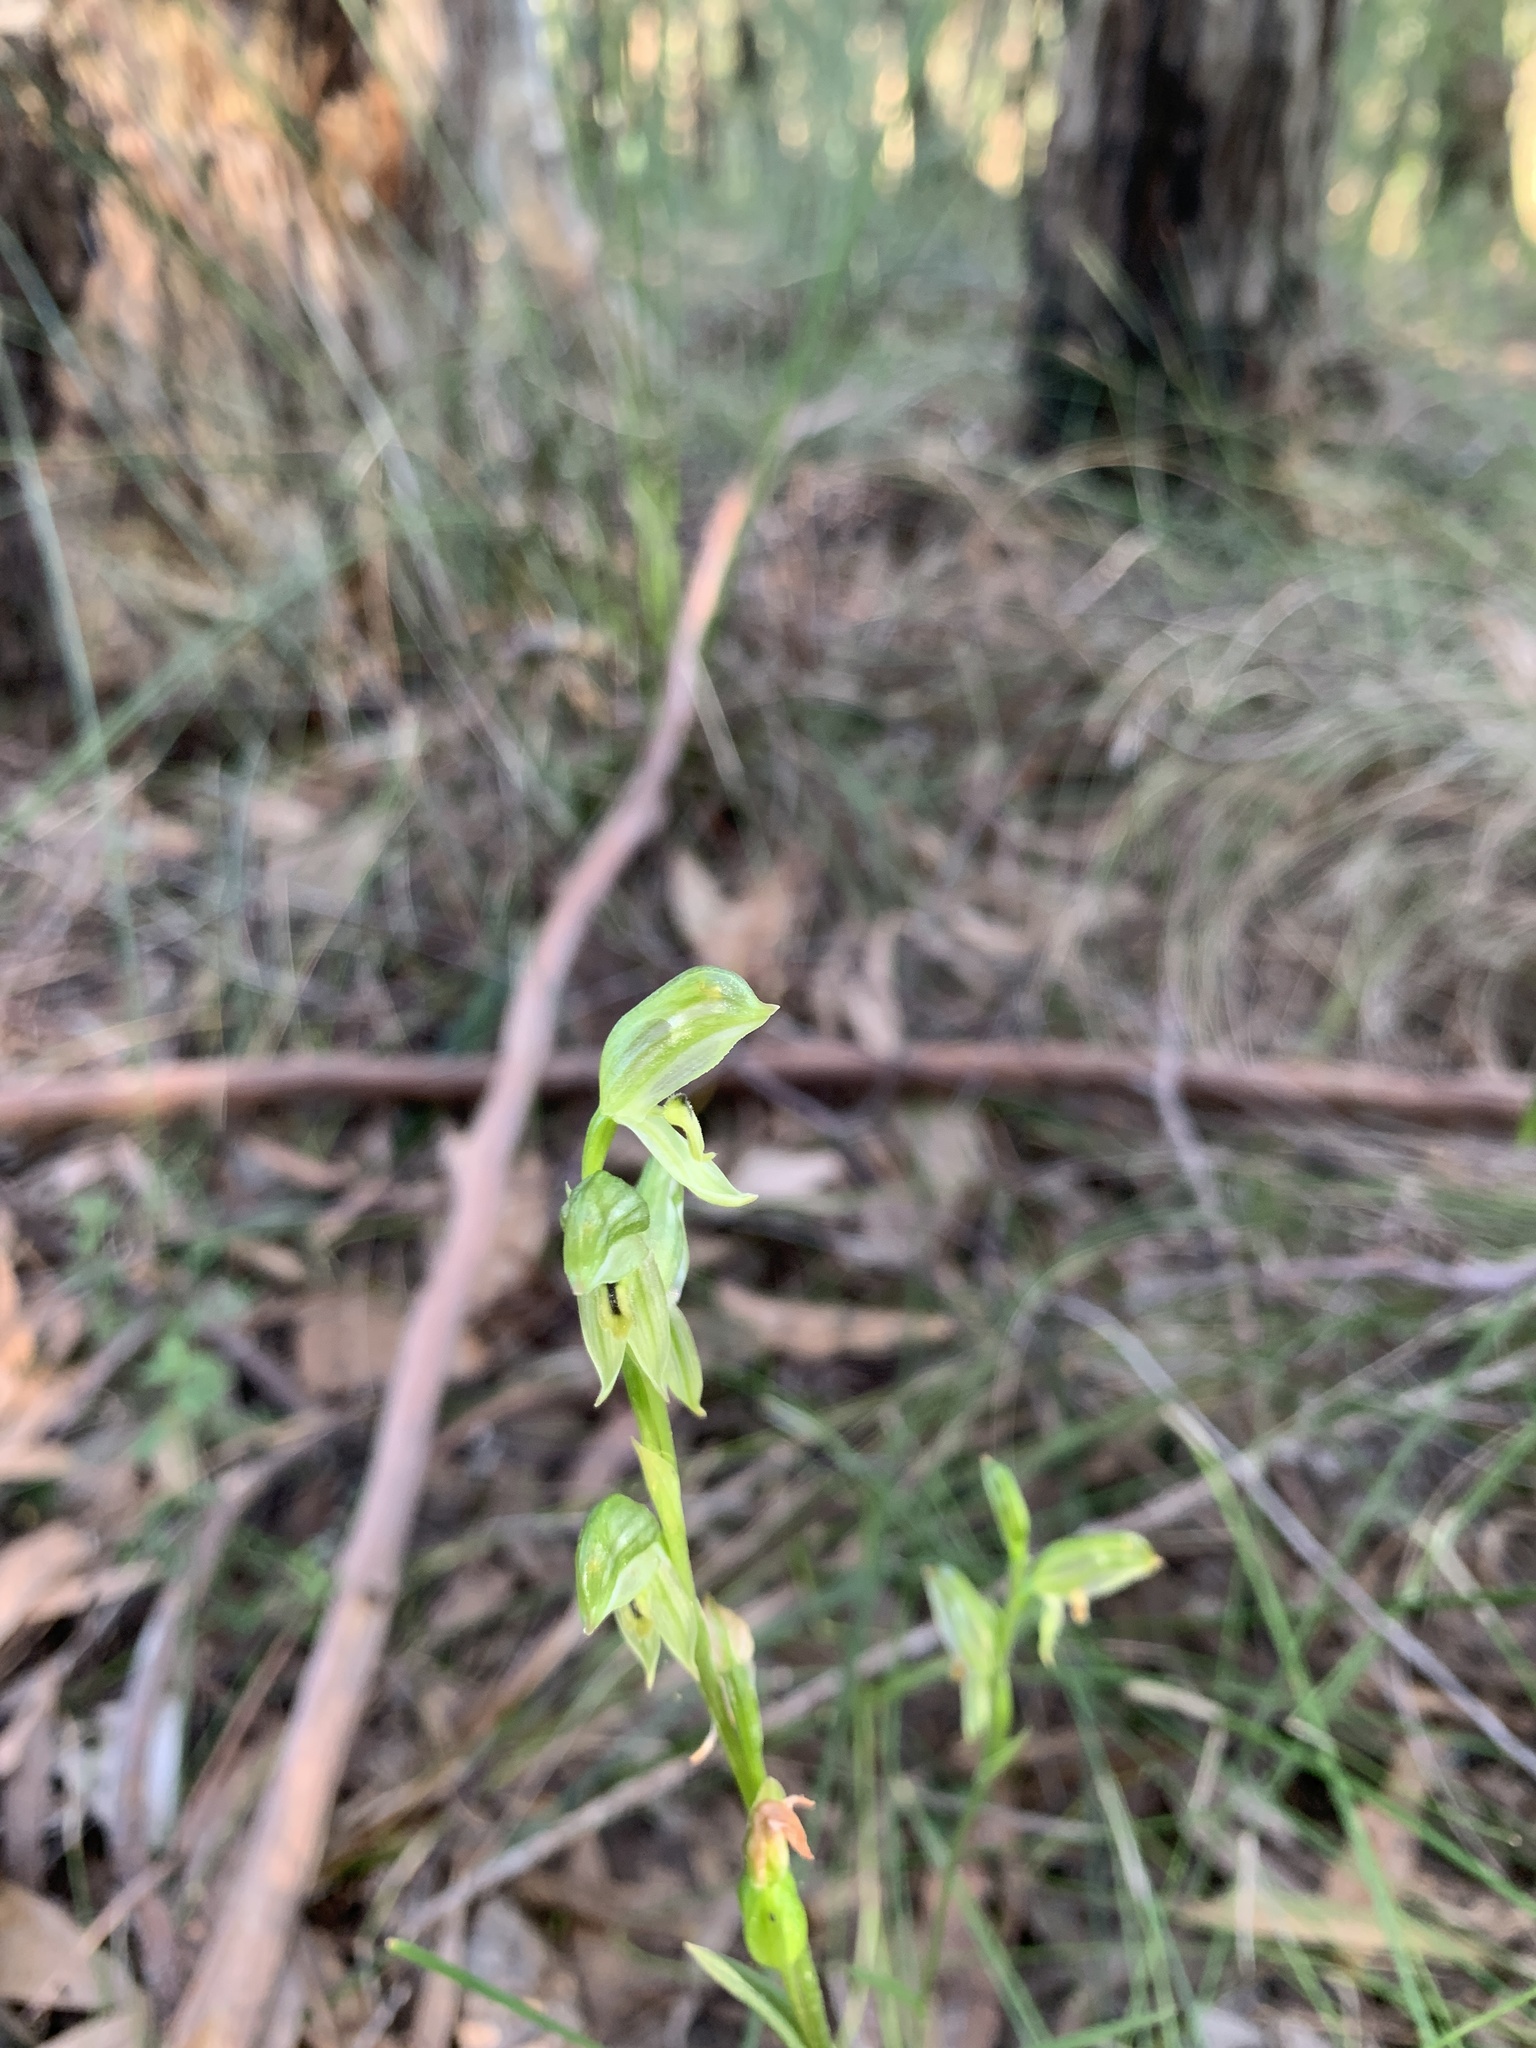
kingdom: Plantae
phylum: Tracheophyta
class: Liliopsida
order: Asparagales
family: Orchidaceae
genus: Pterostylis
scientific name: Pterostylis melagramma
